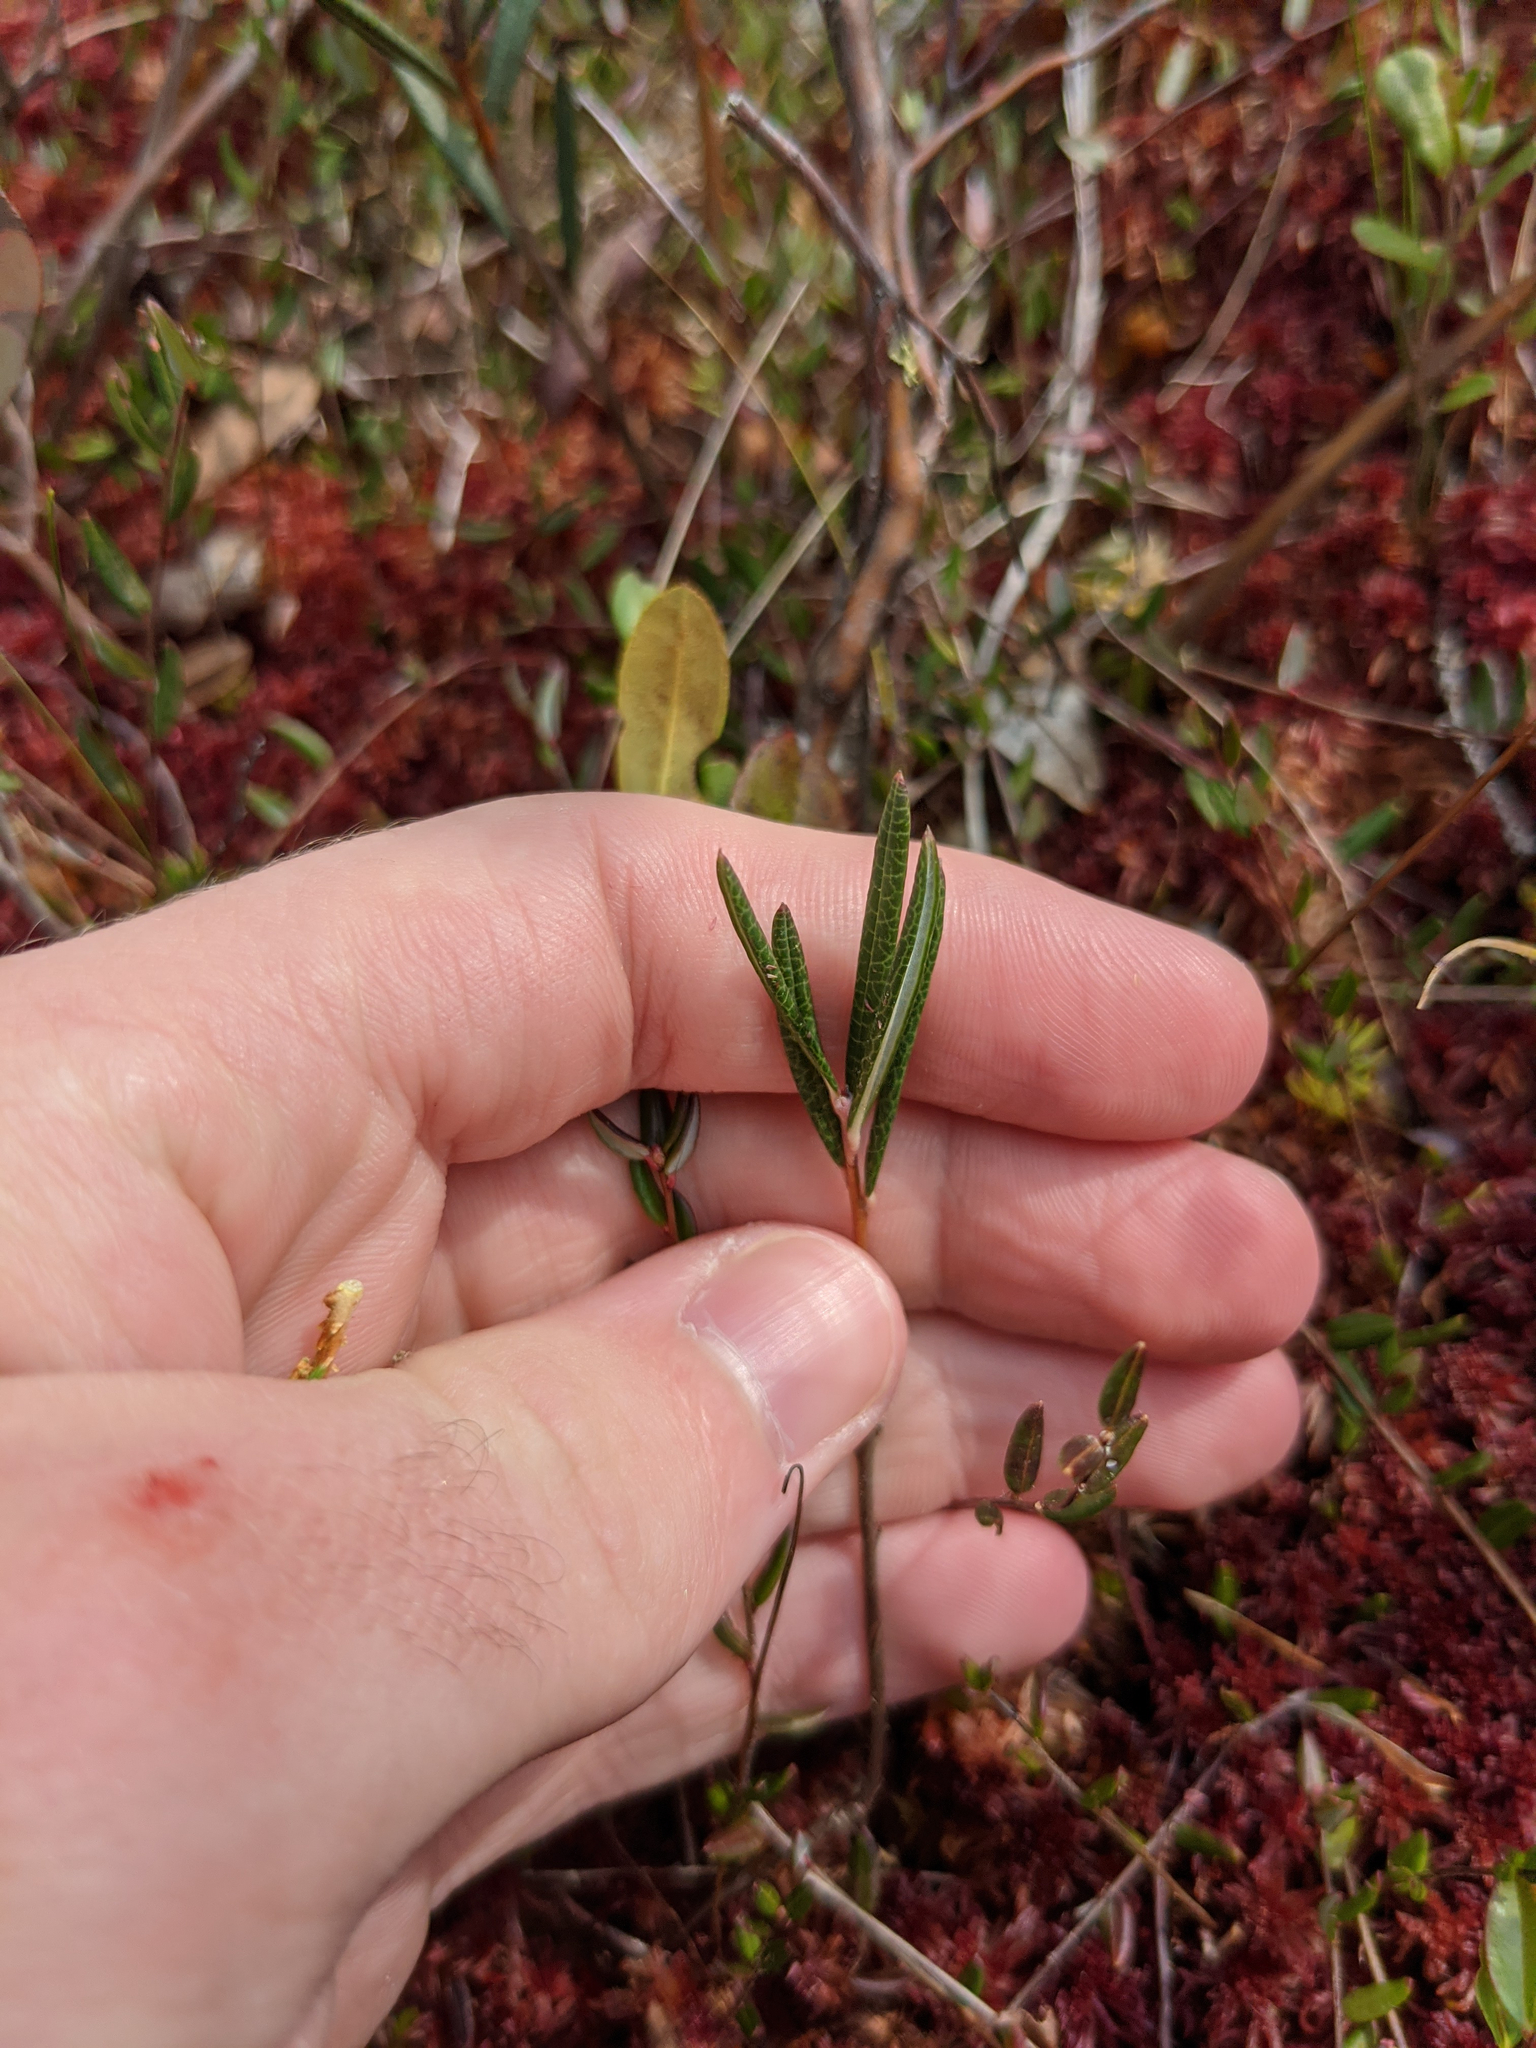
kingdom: Plantae
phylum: Tracheophyta
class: Magnoliopsida
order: Ericales
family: Ericaceae
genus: Andromeda
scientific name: Andromeda polifolia
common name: Bog-rosemary
